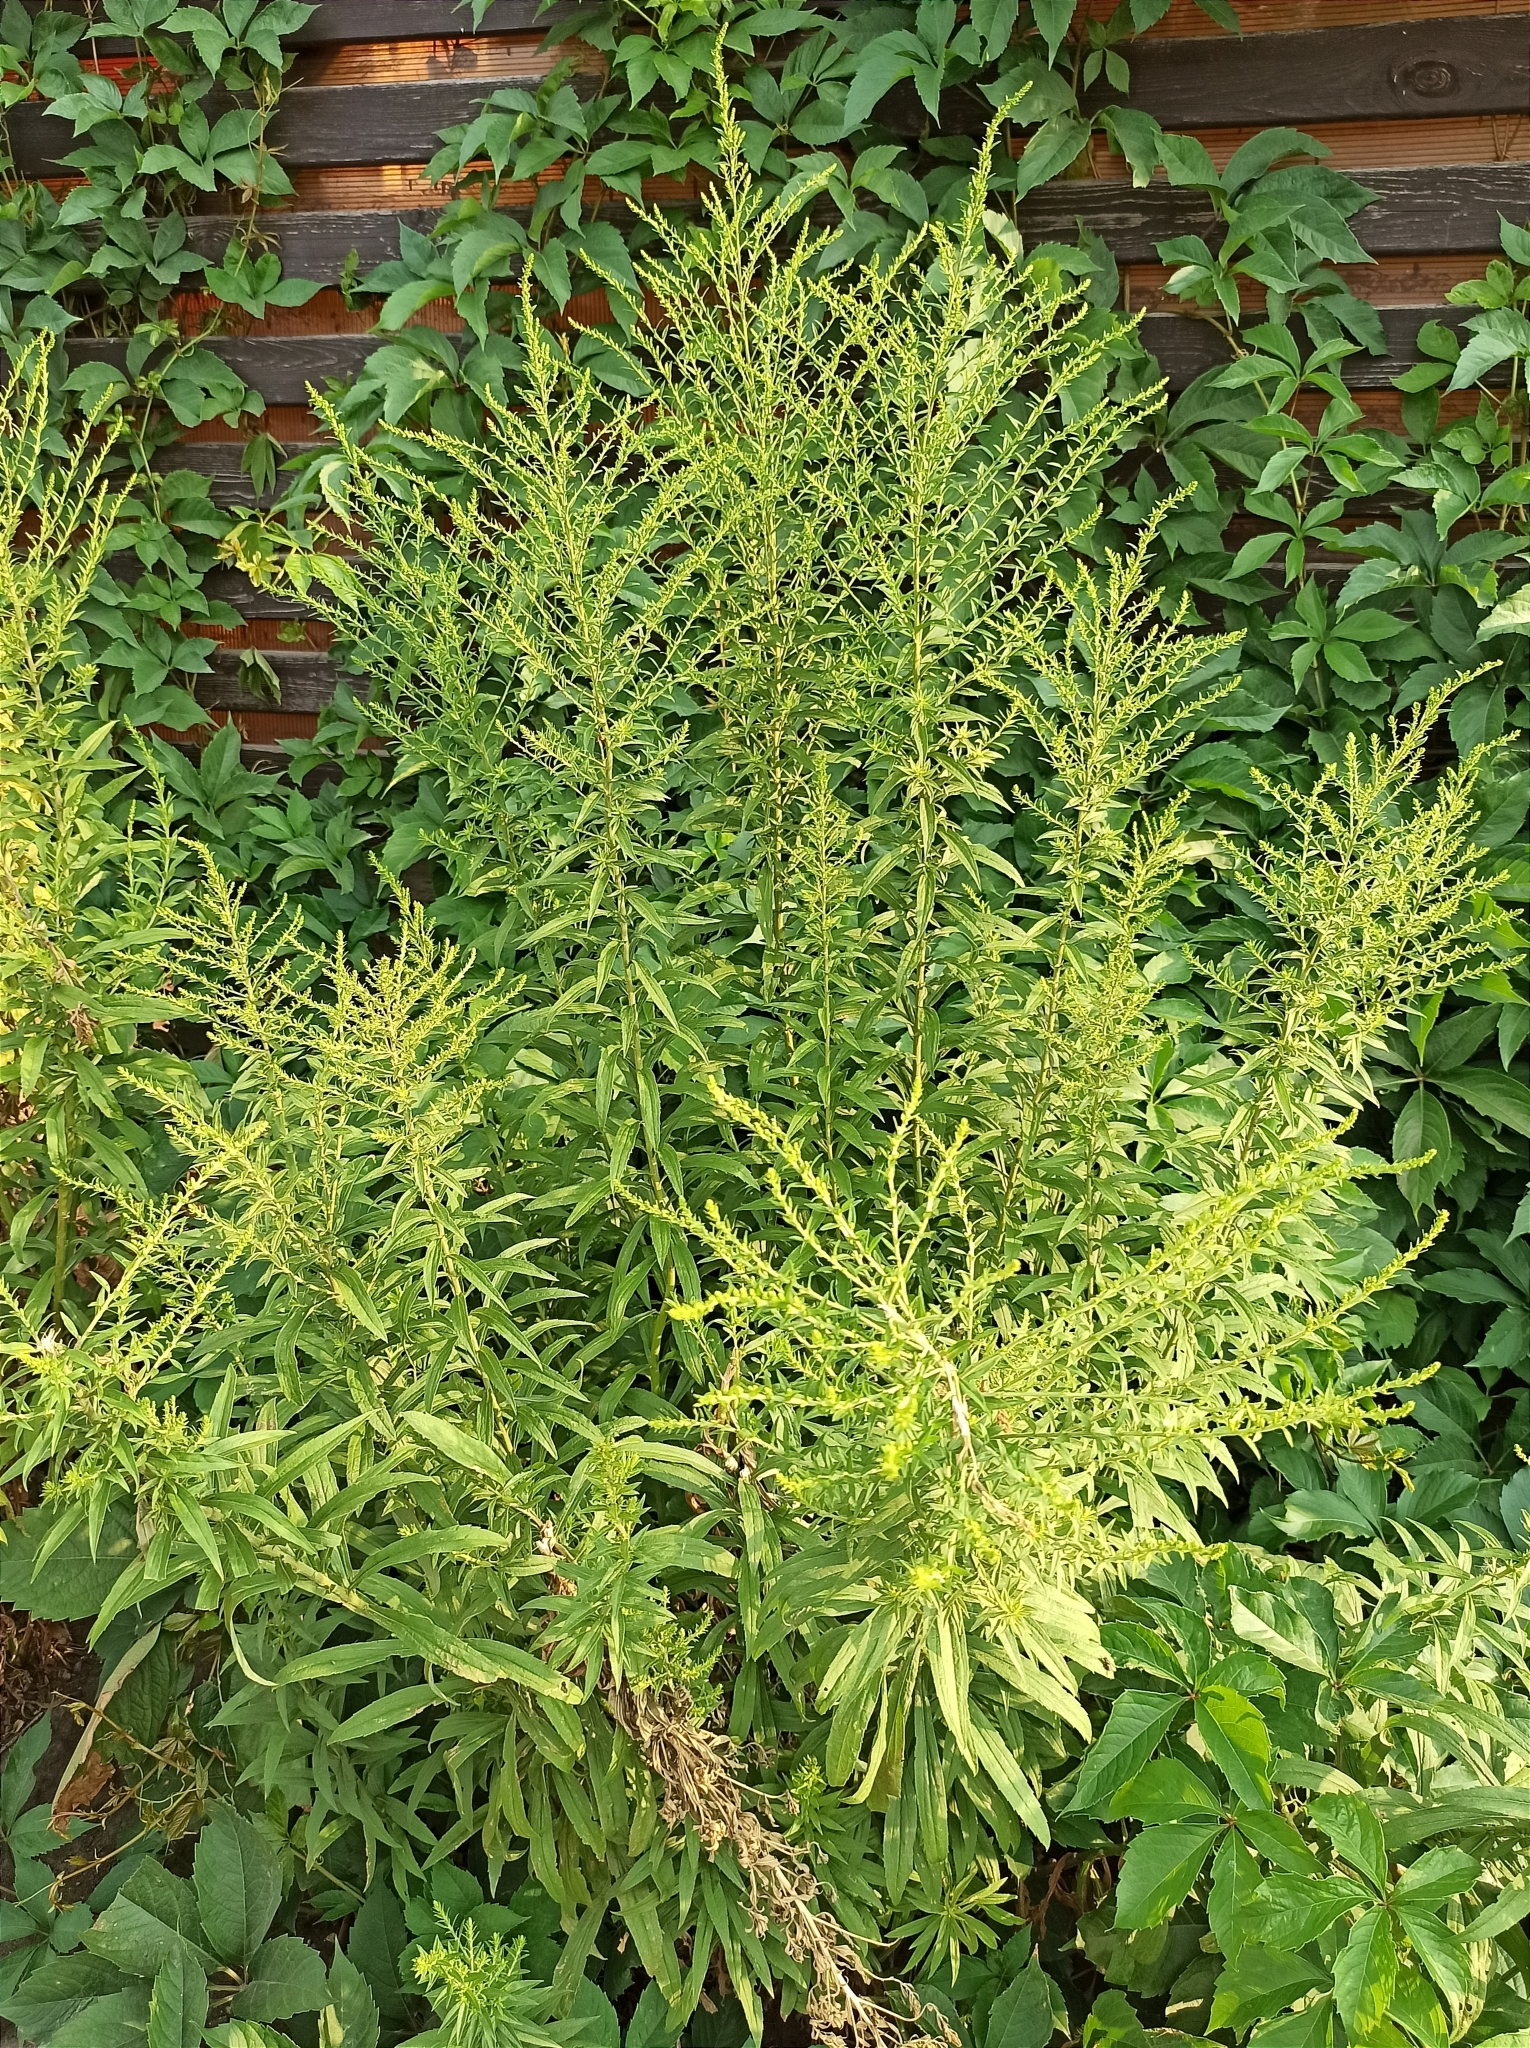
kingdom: Plantae
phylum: Tracheophyta
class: Magnoliopsida
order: Asterales
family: Asteraceae
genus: Solidago
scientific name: Solidago canadensis
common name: Canada goldenrod
